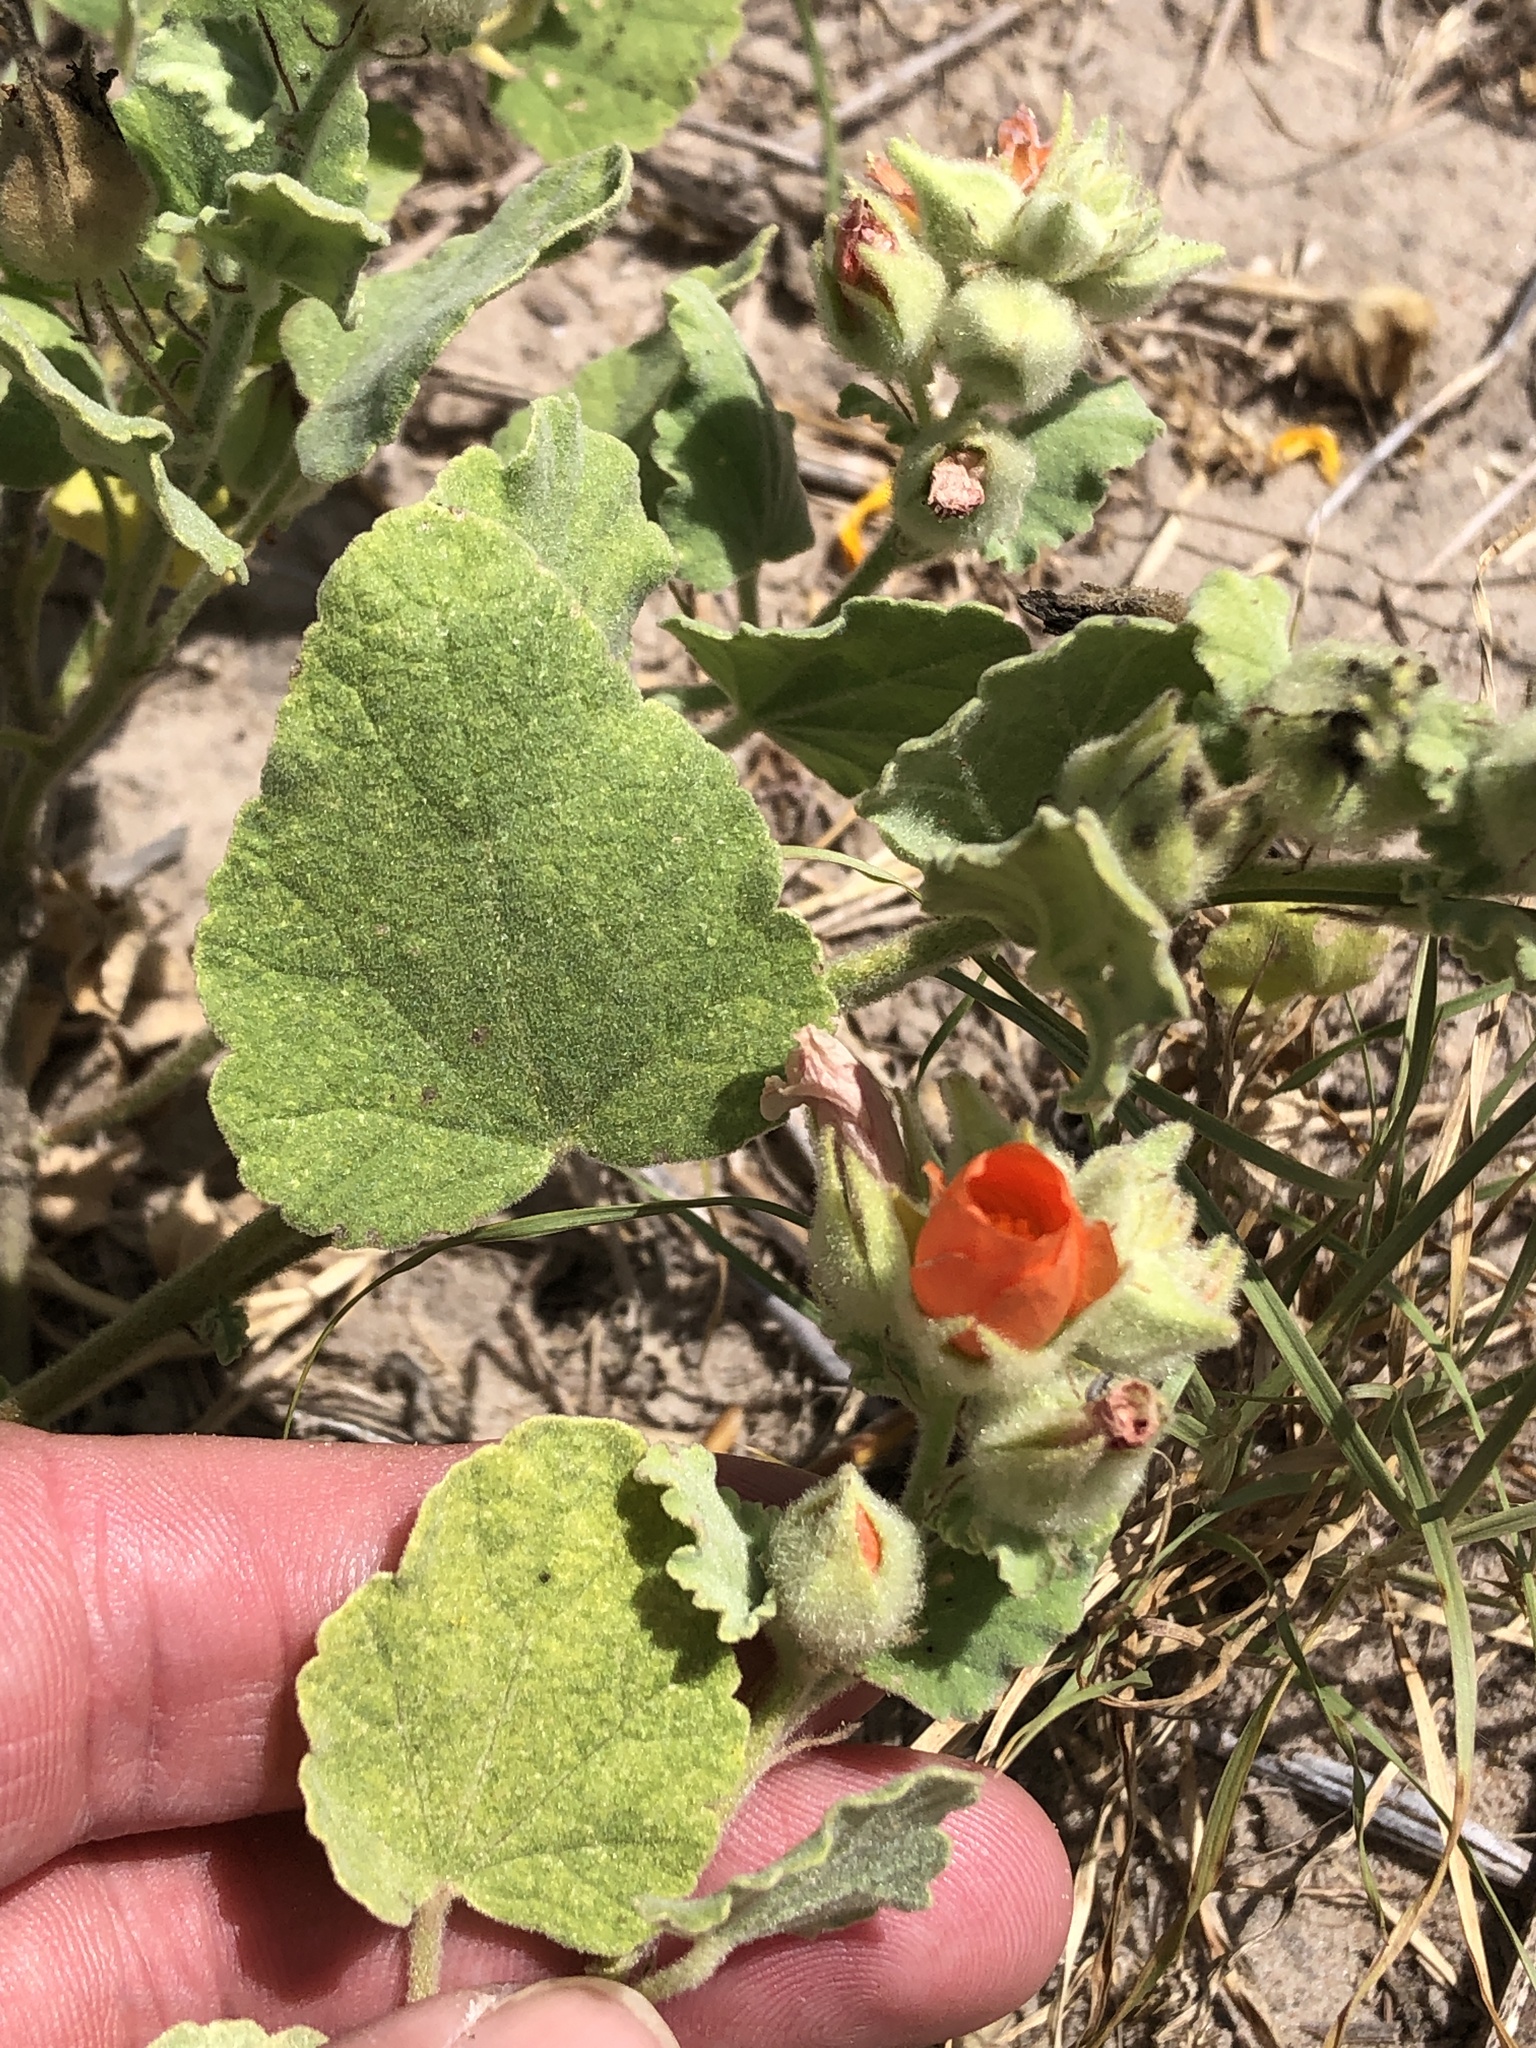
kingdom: Plantae
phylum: Tracheophyta
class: Magnoliopsida
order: Malvales
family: Malvaceae
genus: Sphaeralcea
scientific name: Sphaeralcea lindheimeri
